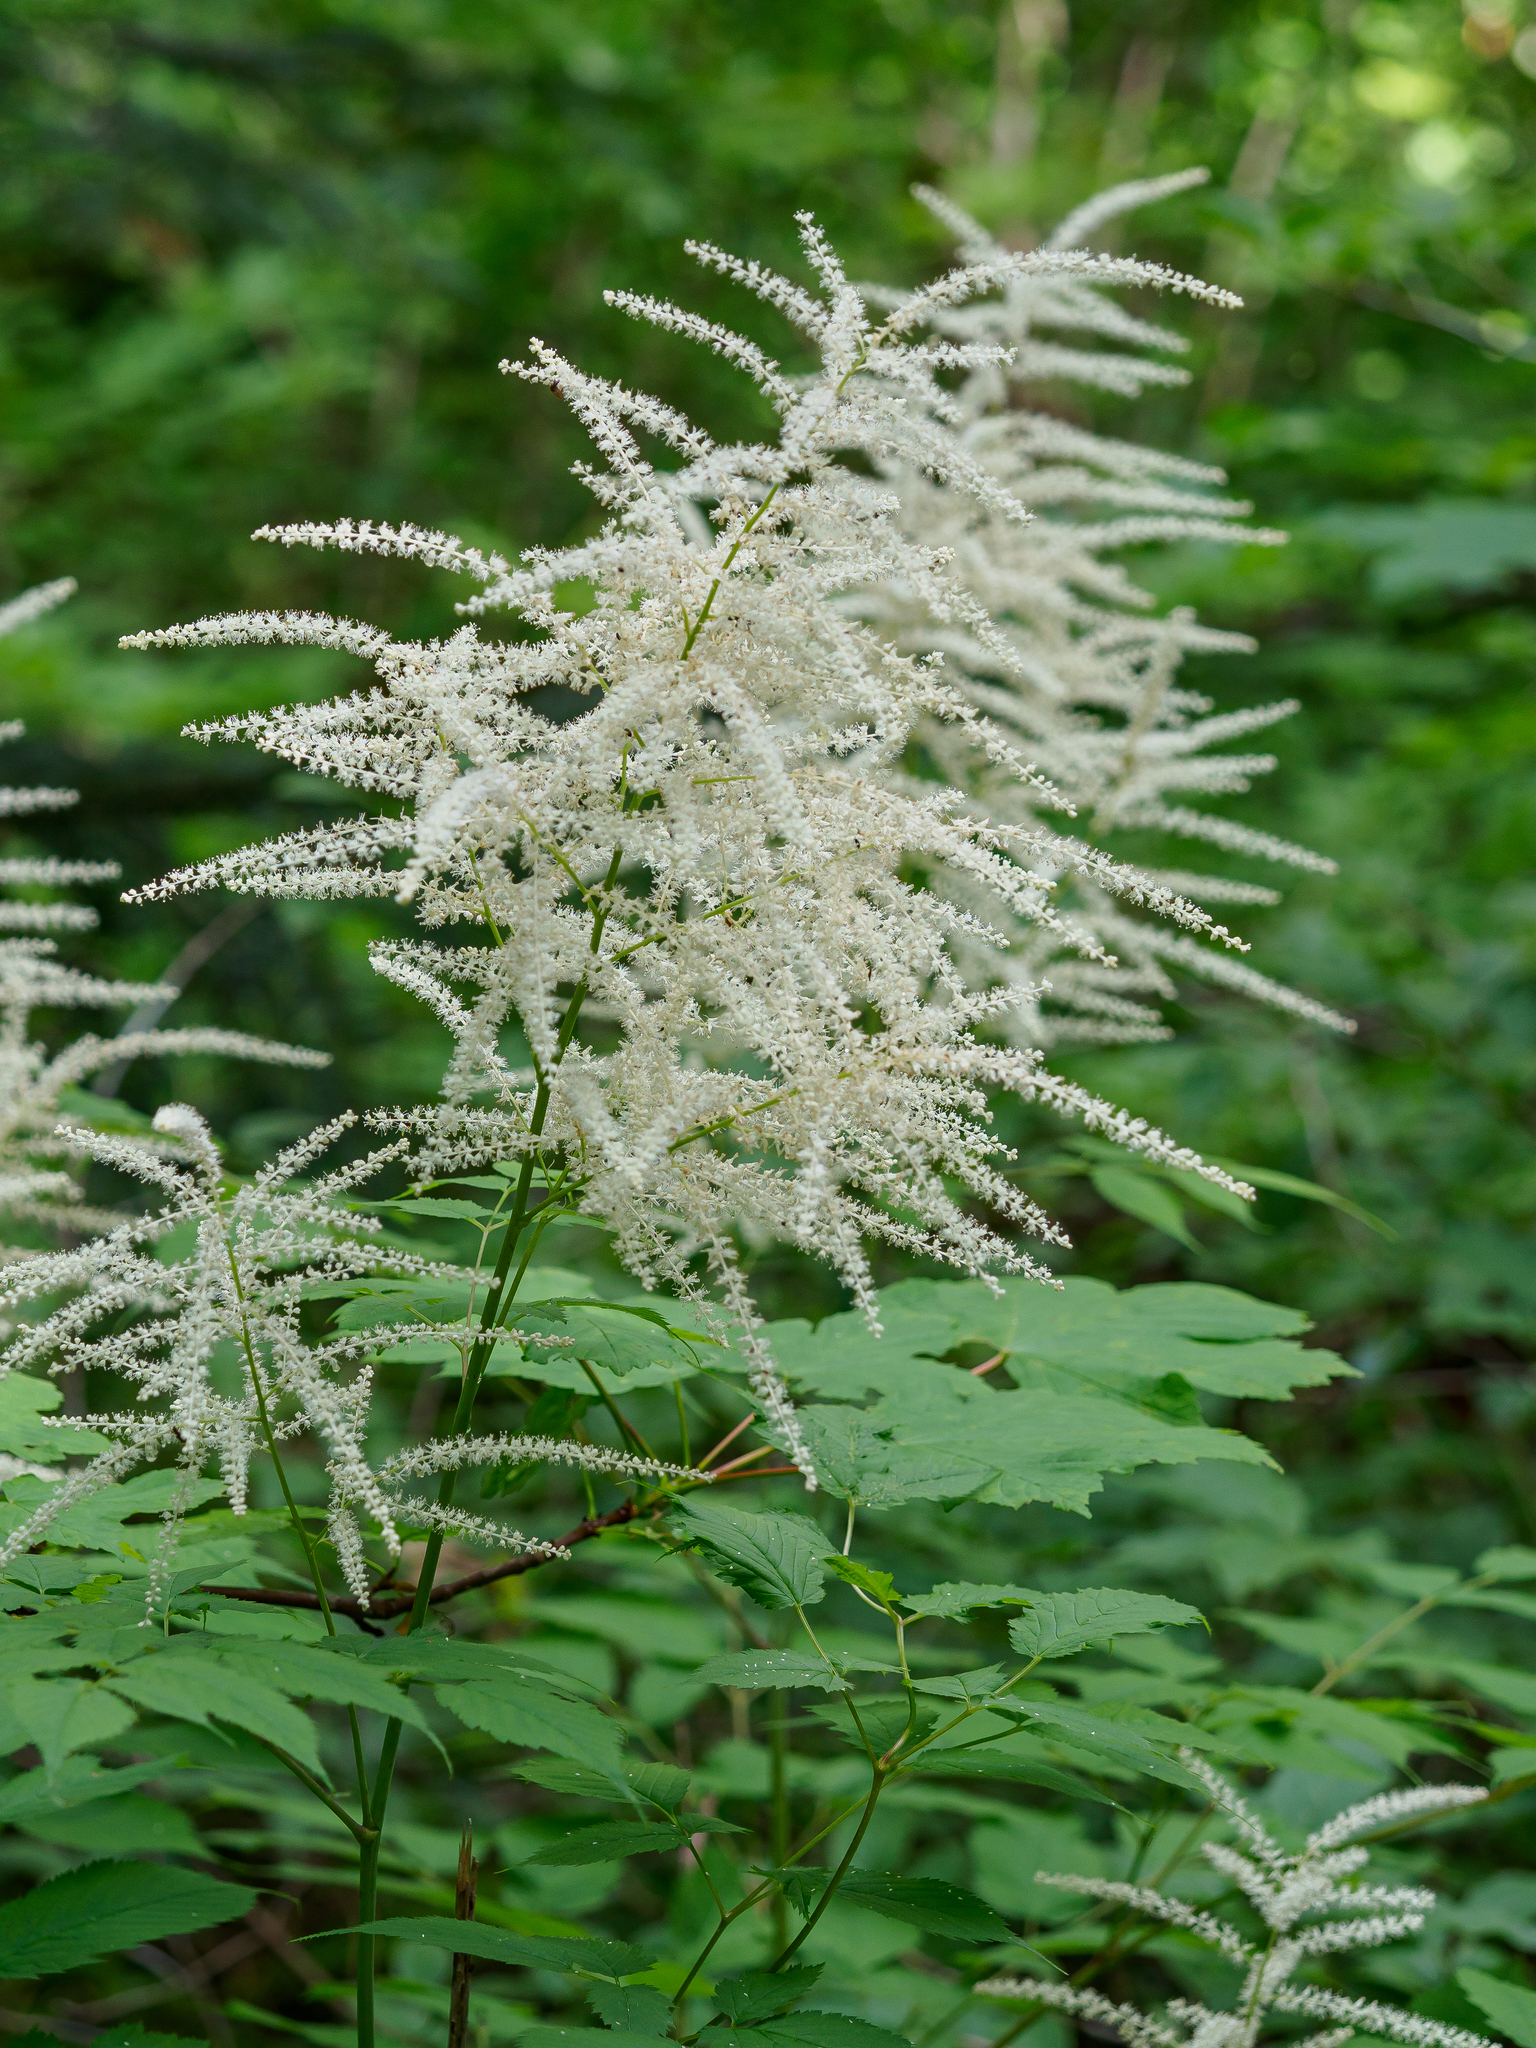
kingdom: Plantae
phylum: Tracheophyta
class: Magnoliopsida
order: Rosales
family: Rosaceae
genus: Aruncus
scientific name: Aruncus dioicus
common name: Buck's-beard
